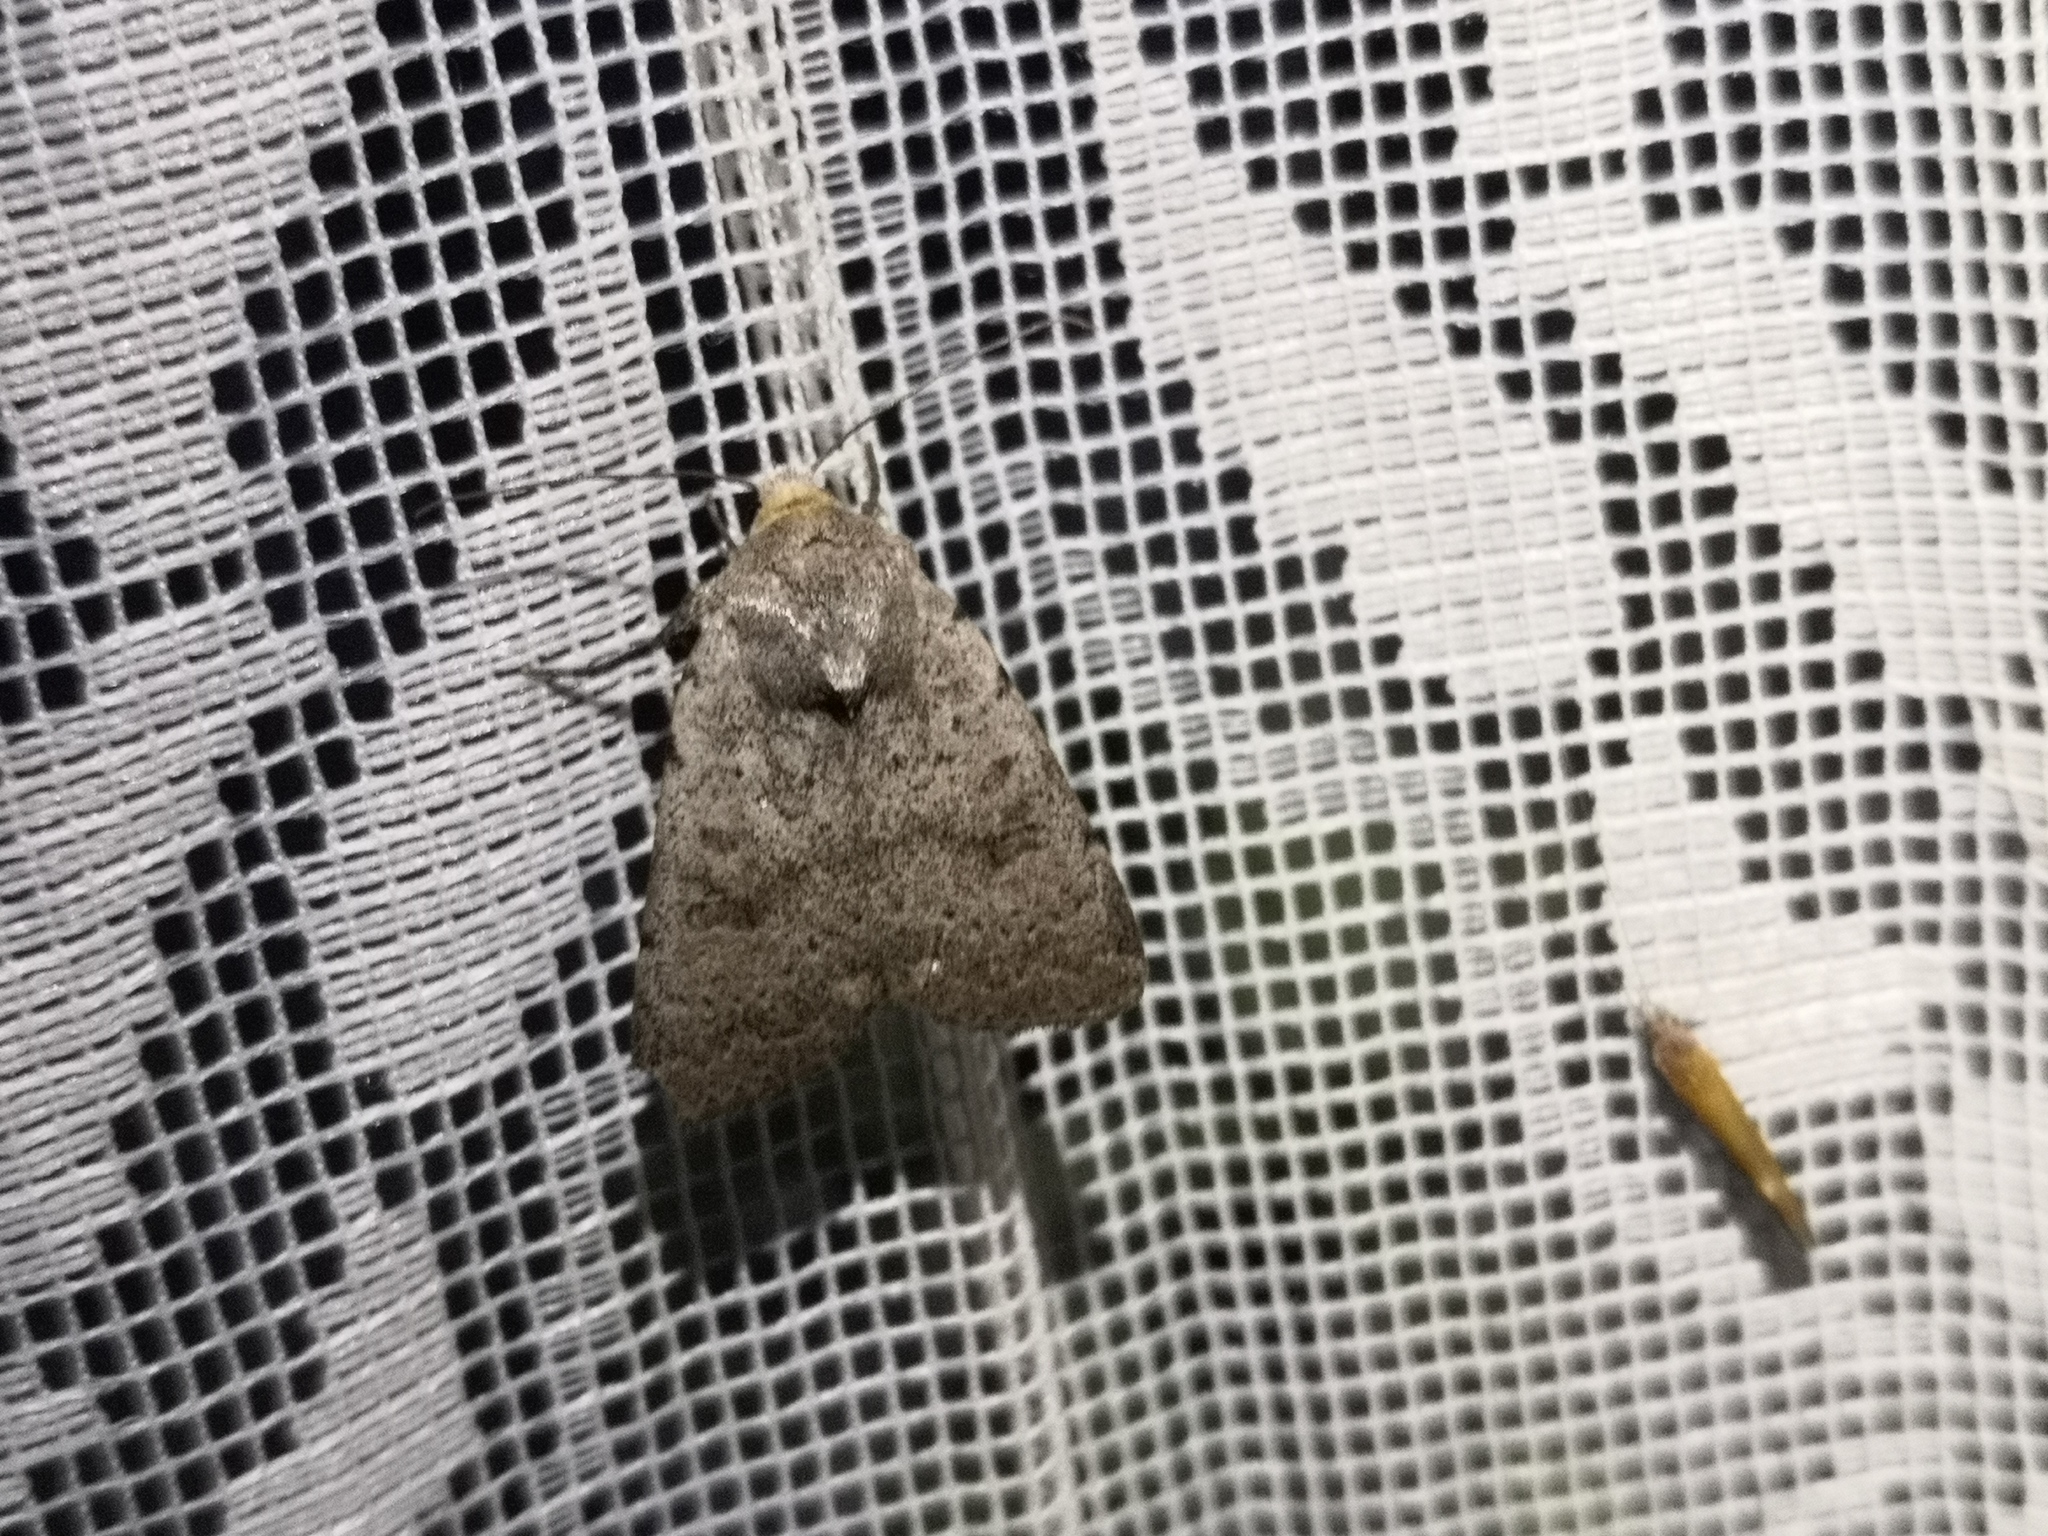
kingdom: Animalia
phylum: Arthropoda
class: Insecta
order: Lepidoptera
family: Noctuidae
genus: Hoplodrina
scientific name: Hoplodrina respersa
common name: Sprinkled rustic
